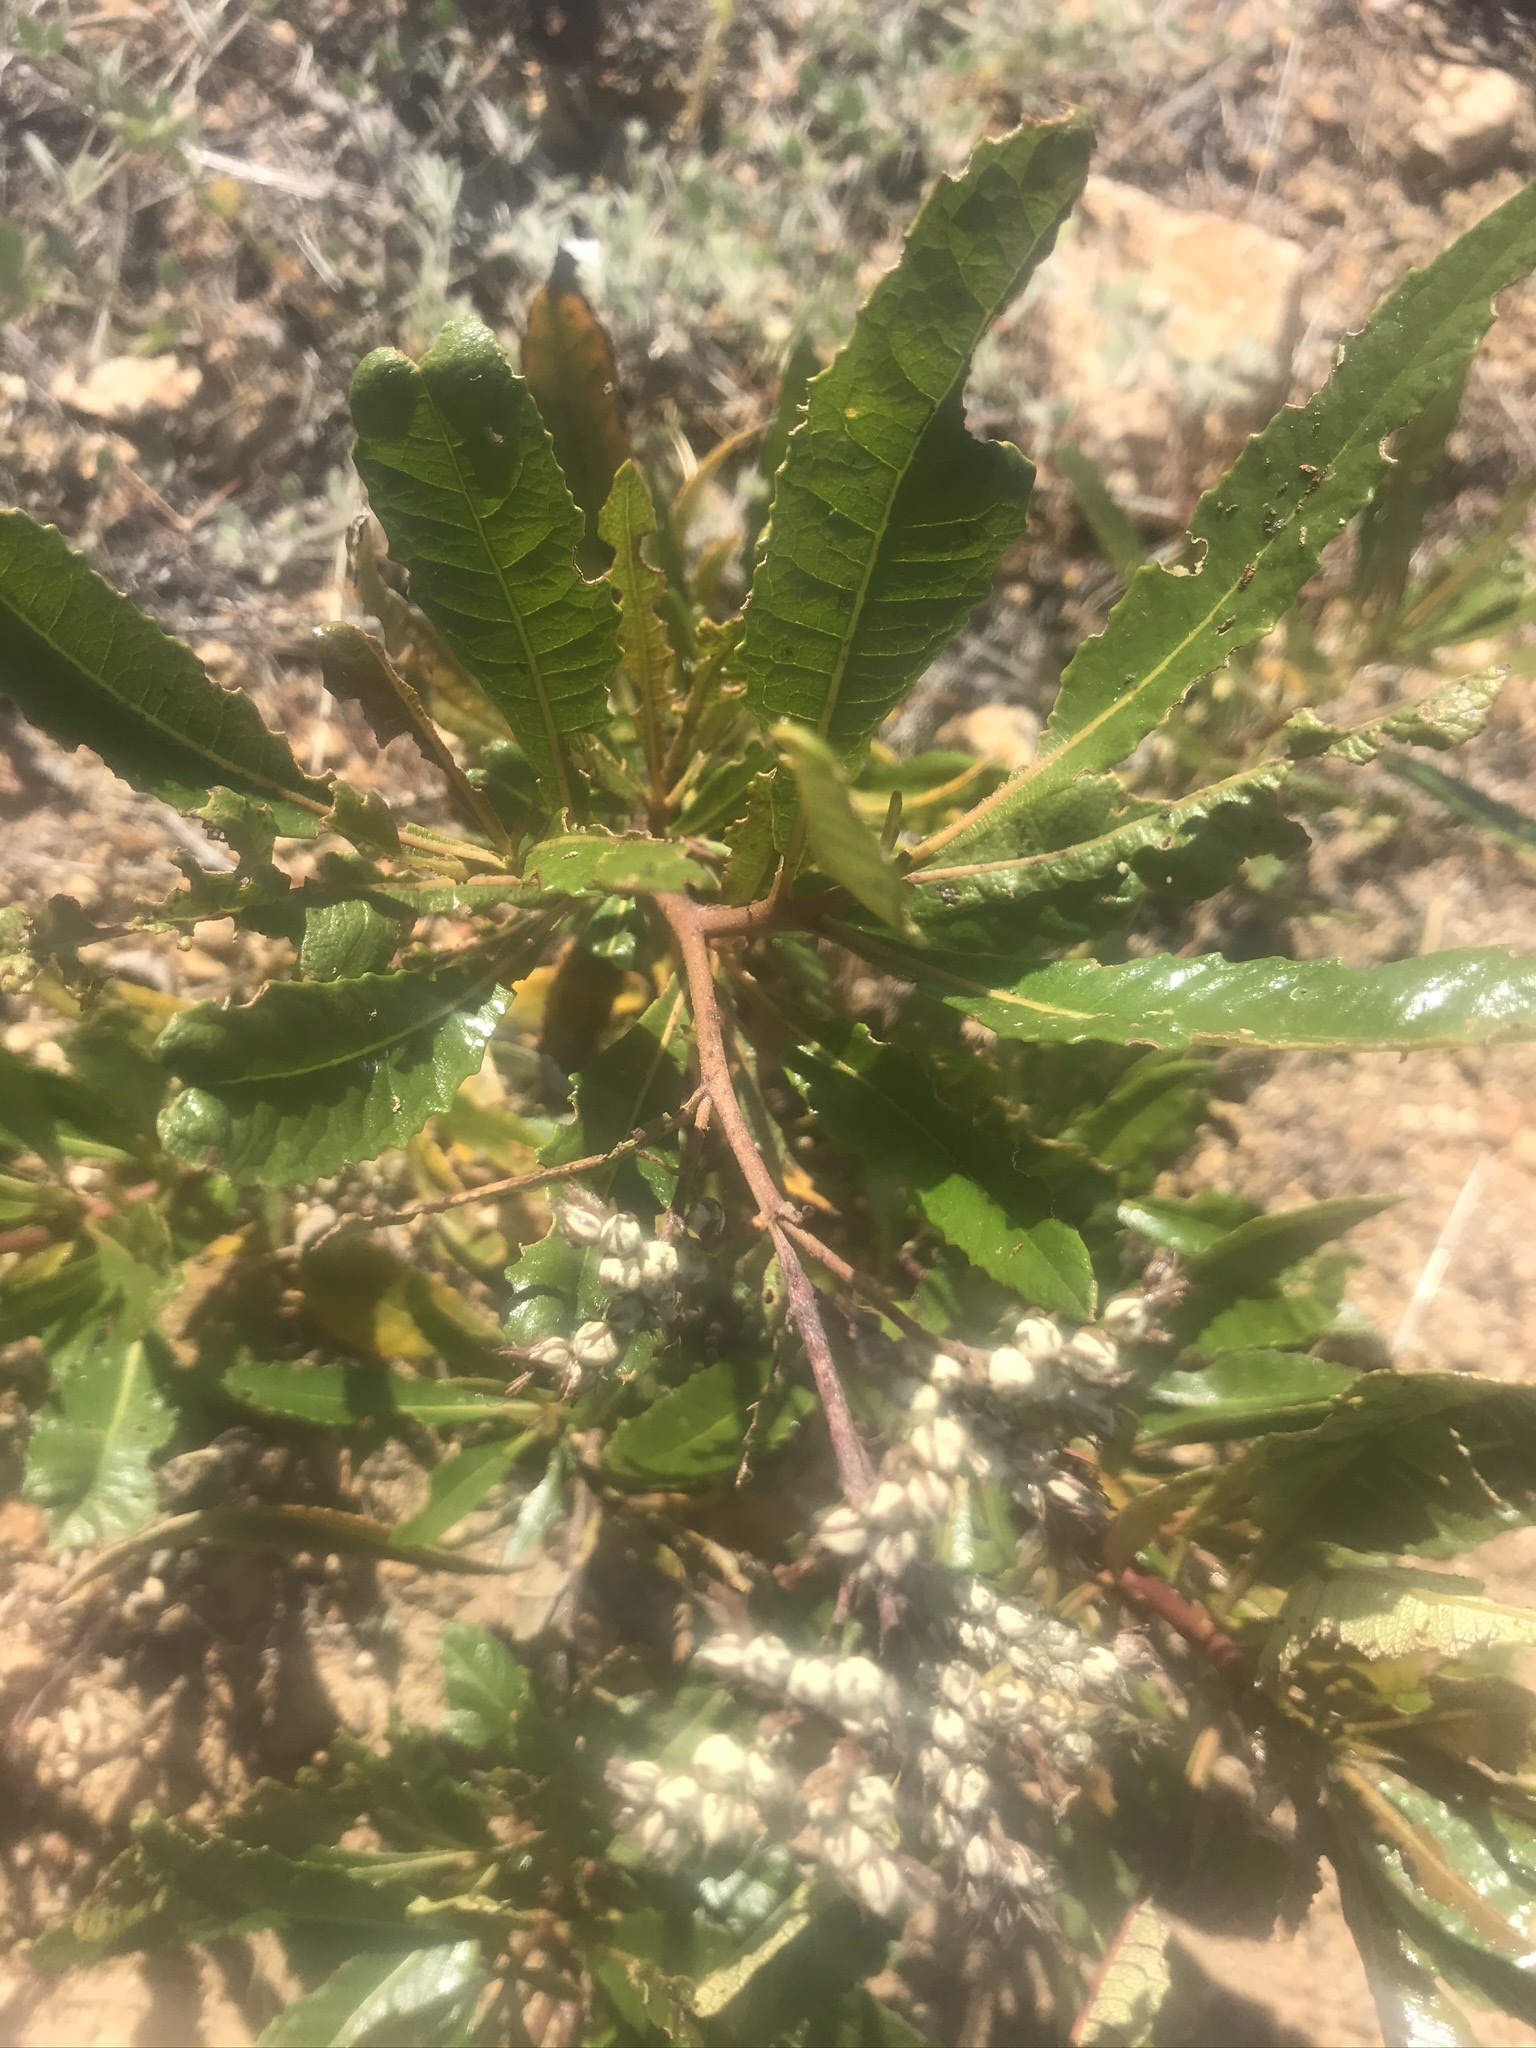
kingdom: Plantae
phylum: Tracheophyta
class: Magnoliopsida
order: Boraginales
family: Namaceae
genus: Eriodictyon
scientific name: Eriodictyon californicum
